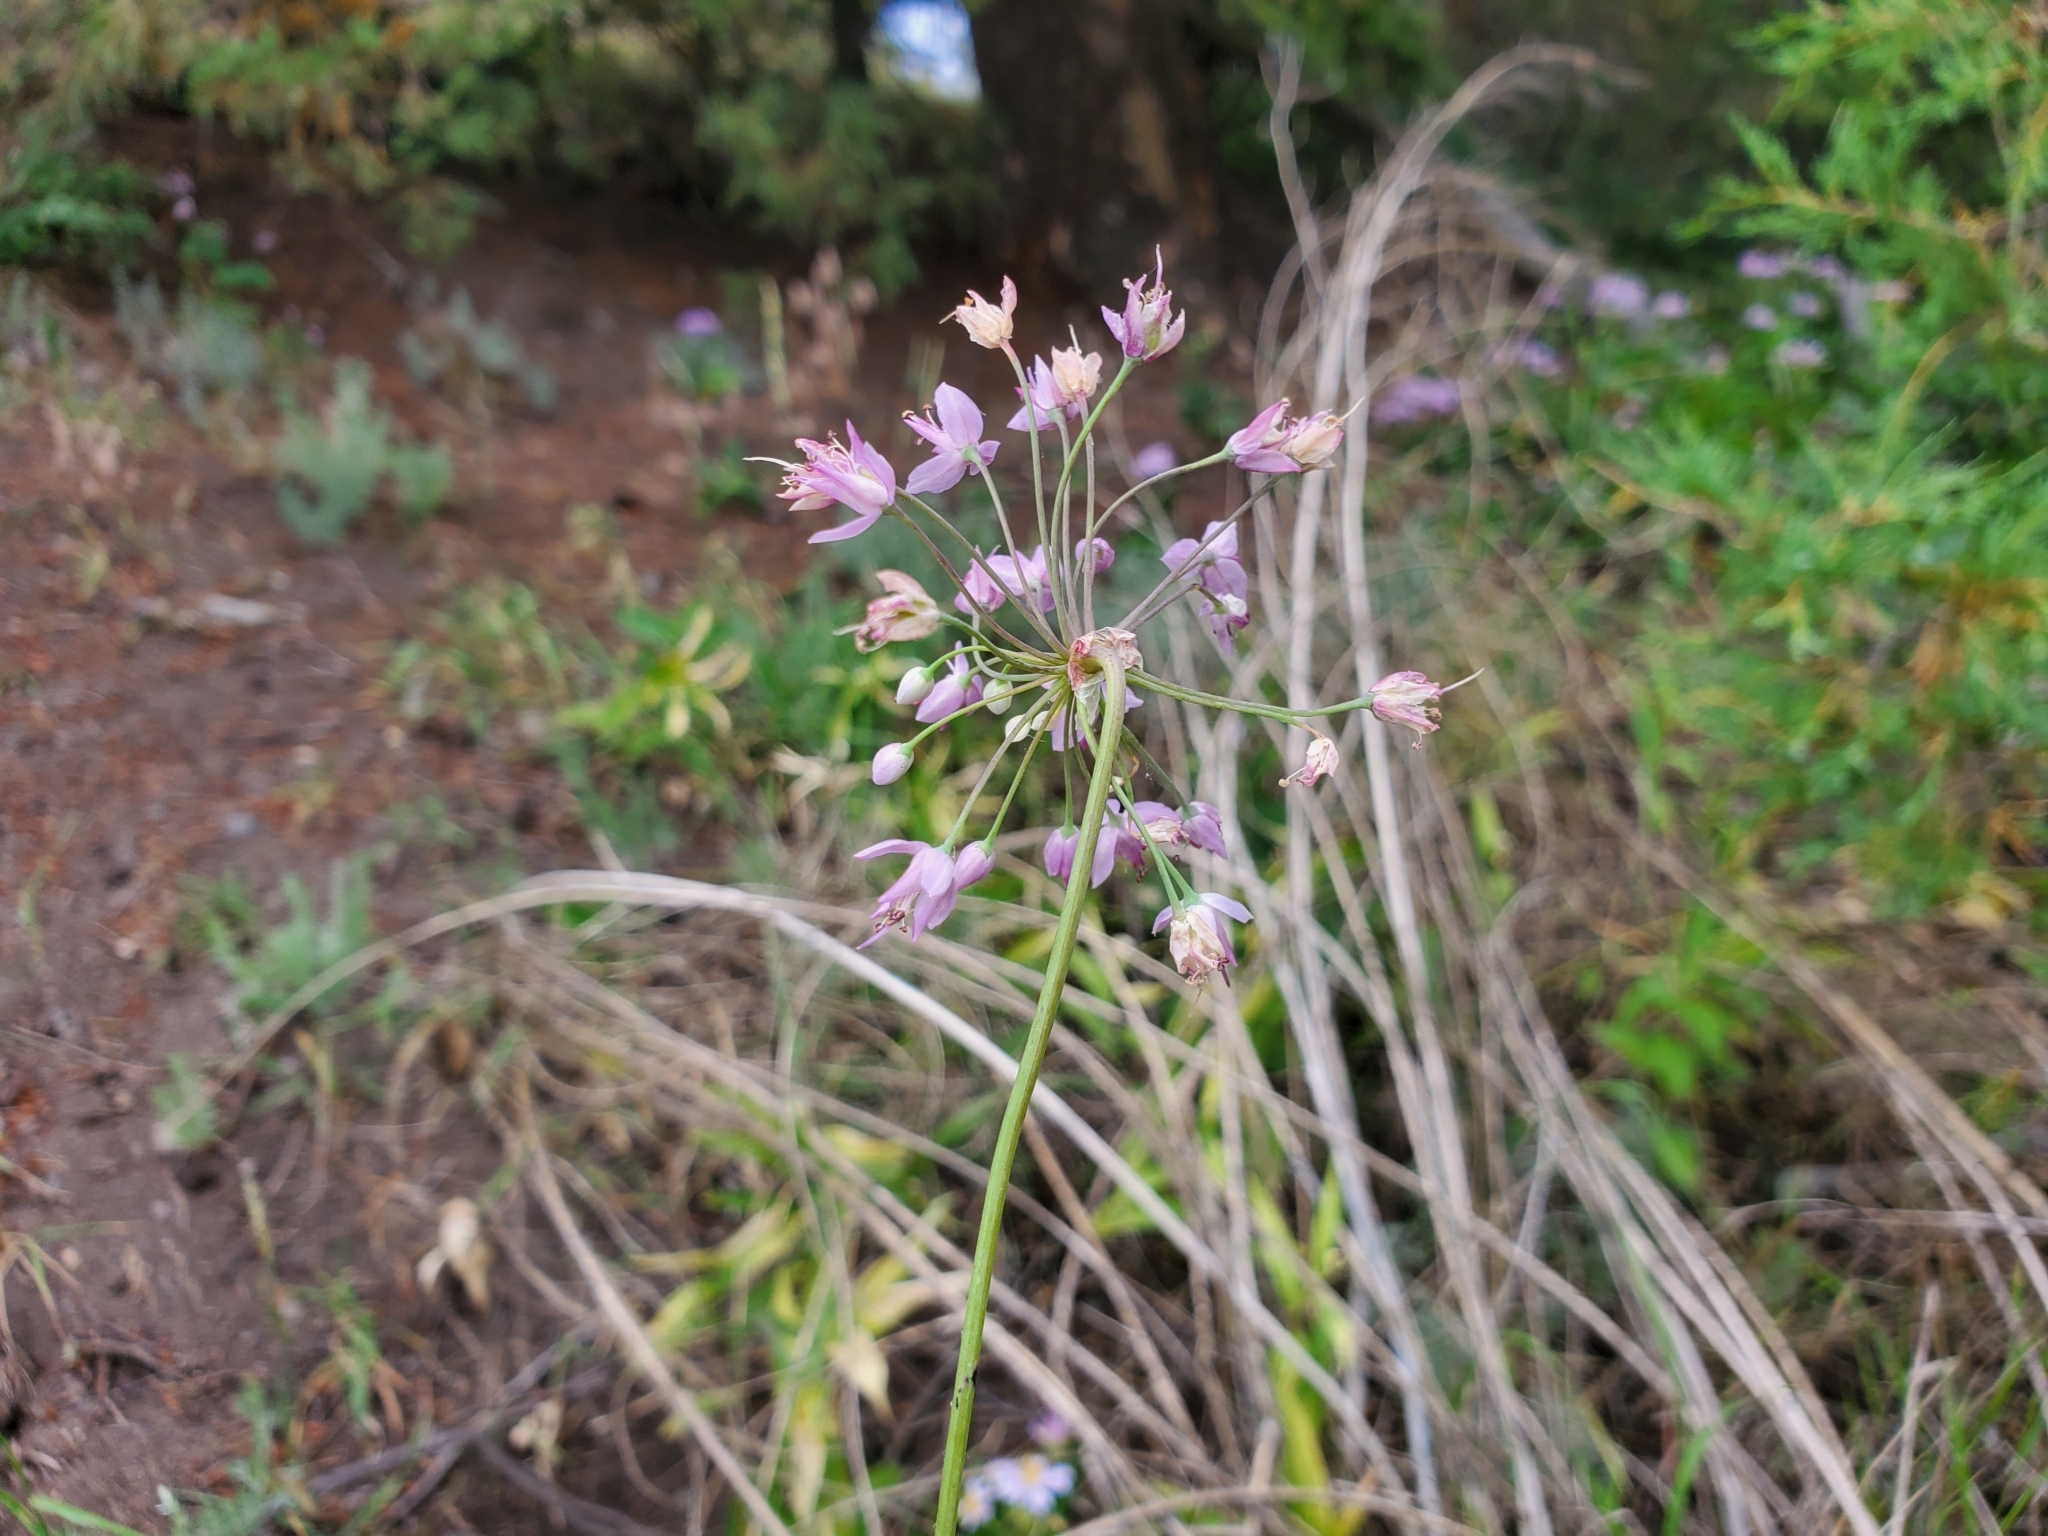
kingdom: Plantae
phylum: Tracheophyta
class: Liliopsida
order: Asparagales
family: Amaryllidaceae
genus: Allium
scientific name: Allium cernuum
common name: Nodding onion
